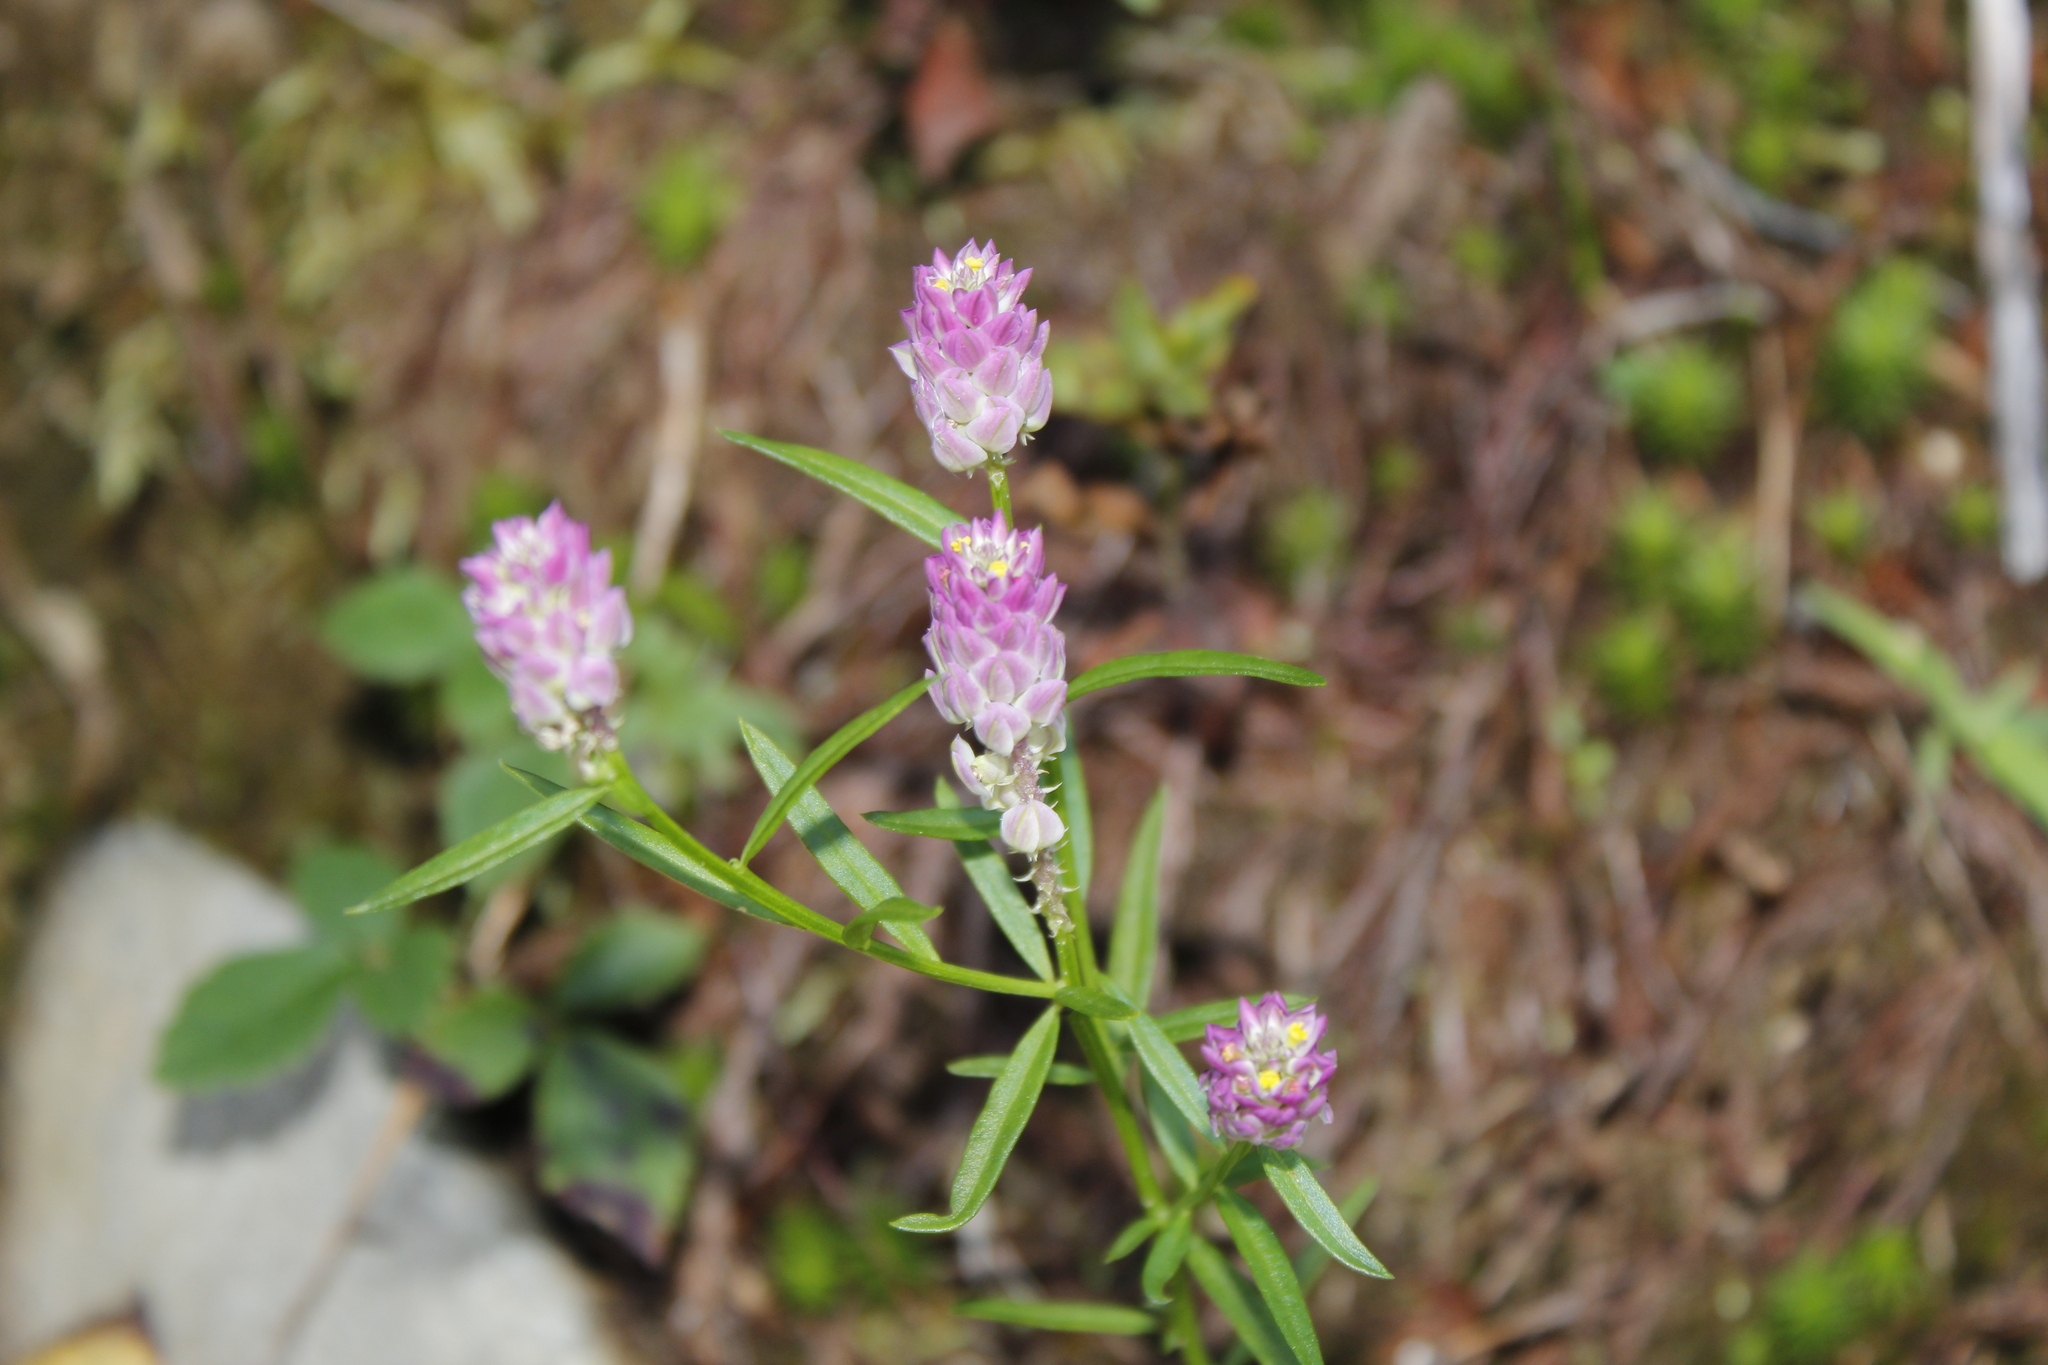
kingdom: Plantae
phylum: Tracheophyta
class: Magnoliopsida
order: Fabales
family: Polygalaceae
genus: Polygala
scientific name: Polygala sanguinea
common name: Blood milkwort
